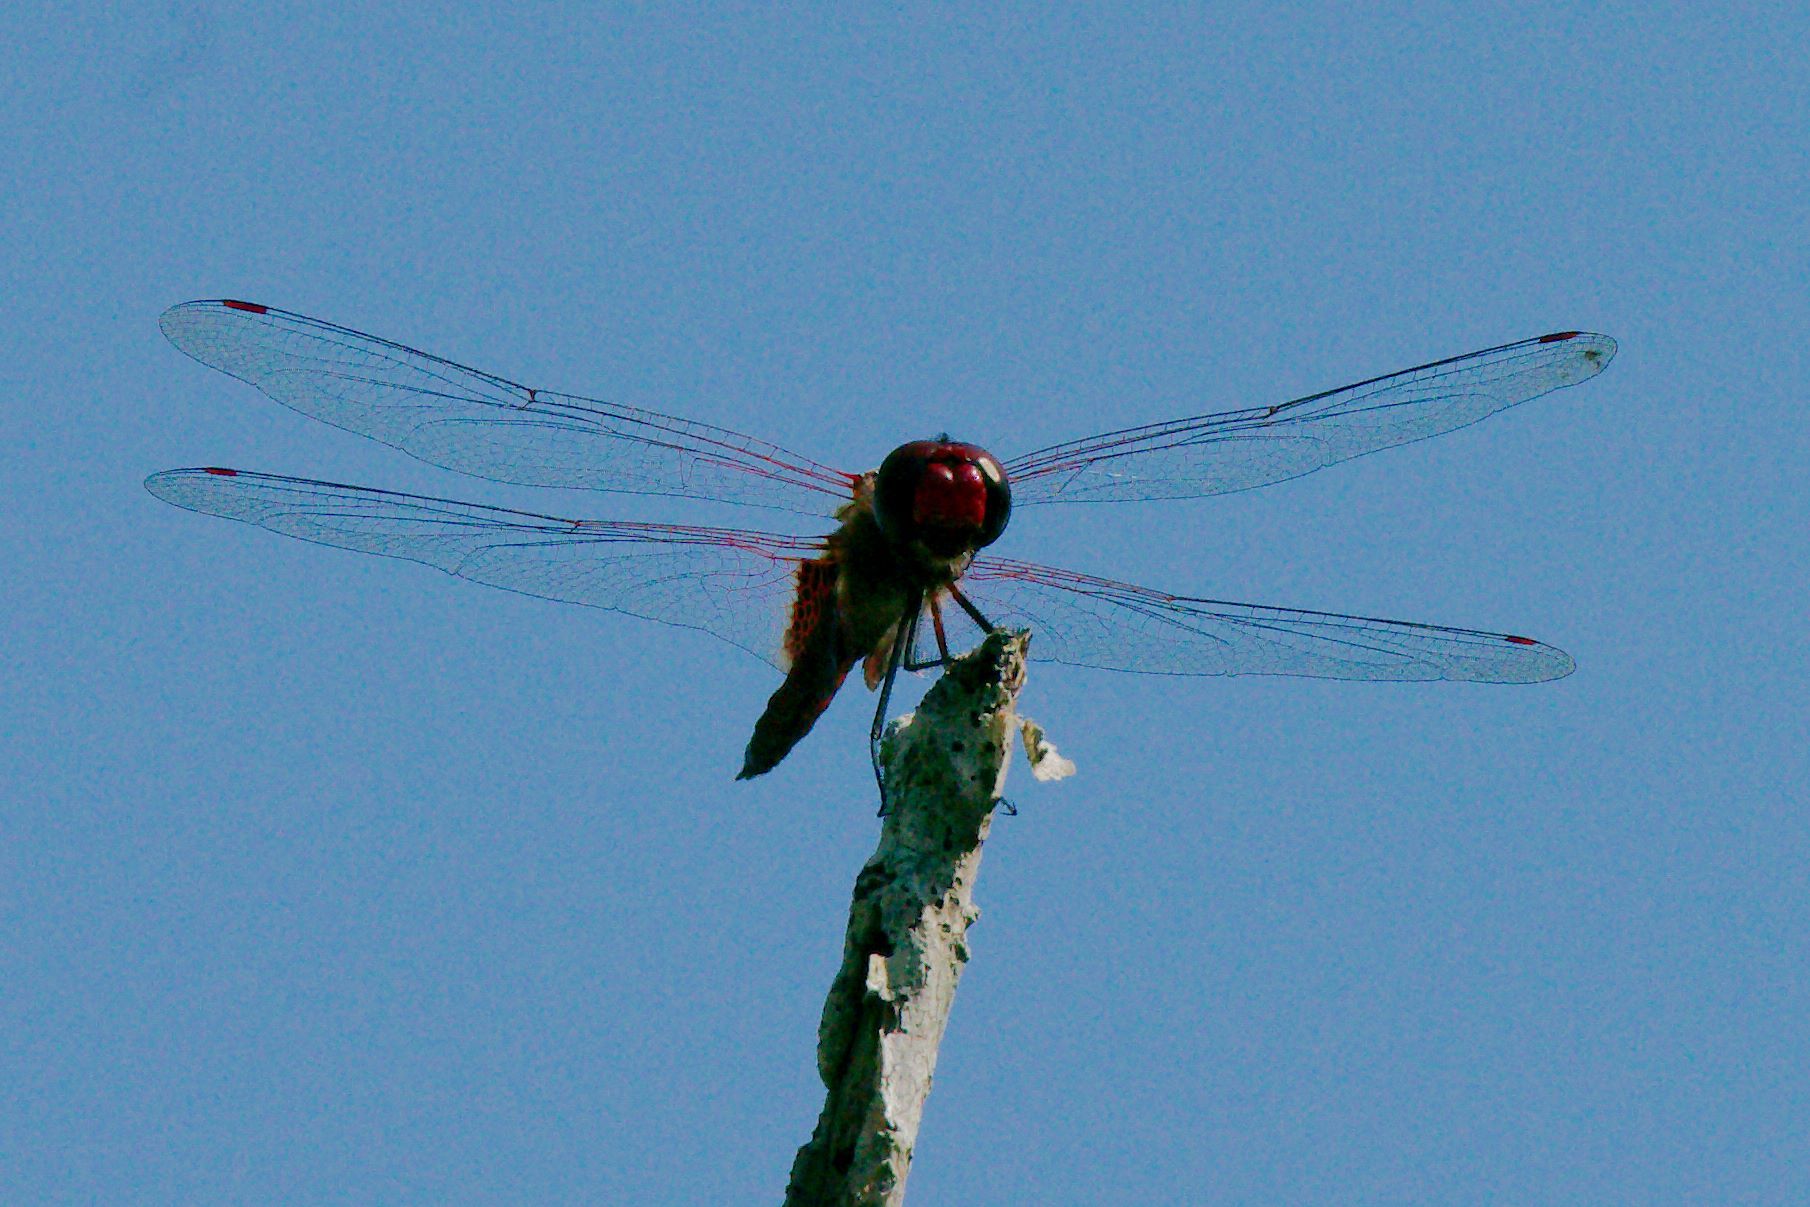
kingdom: Animalia
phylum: Arthropoda
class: Insecta
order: Odonata
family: Libellulidae
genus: Tramea
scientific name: Tramea abdominalis
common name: Vermilion saddlebags
